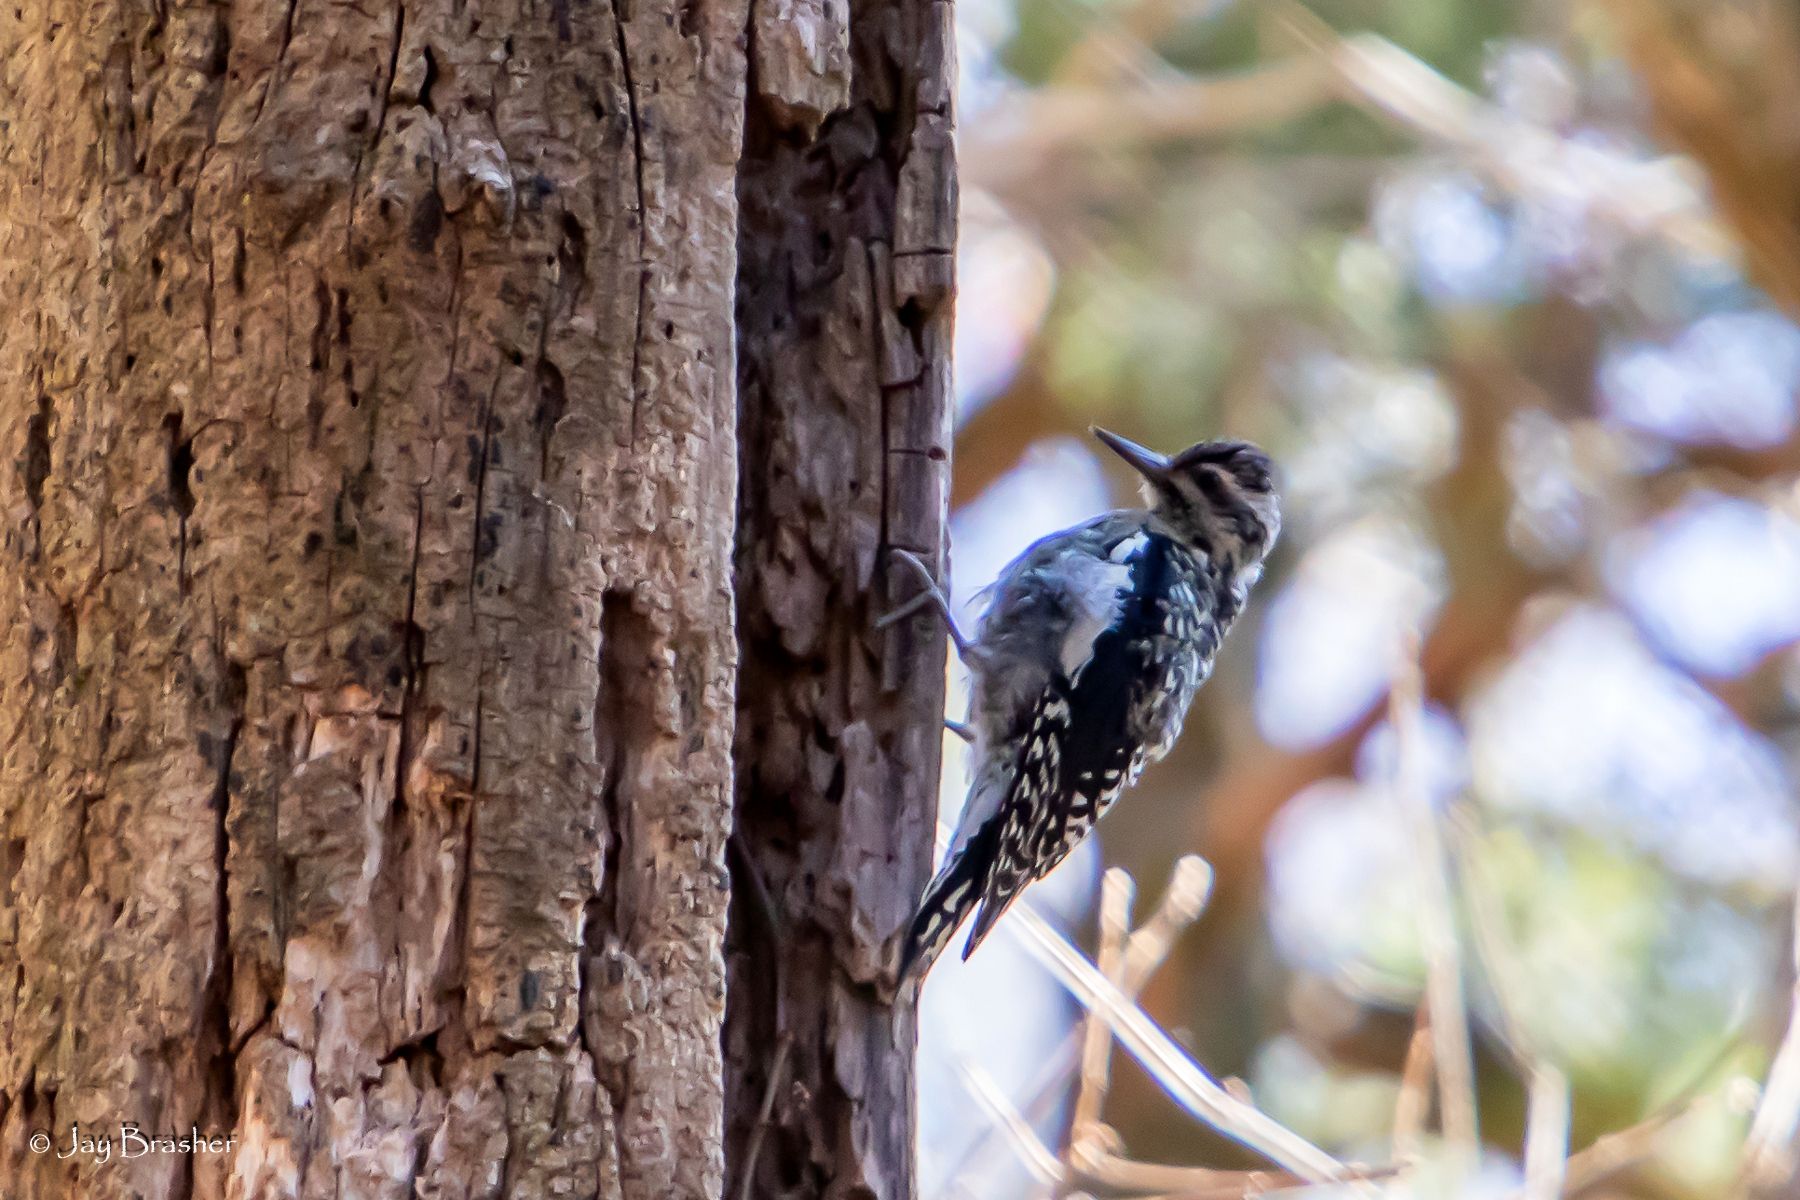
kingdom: Animalia
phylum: Chordata
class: Aves
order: Piciformes
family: Picidae
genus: Sphyrapicus
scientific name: Sphyrapicus varius
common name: Yellow-bellied sapsucker
